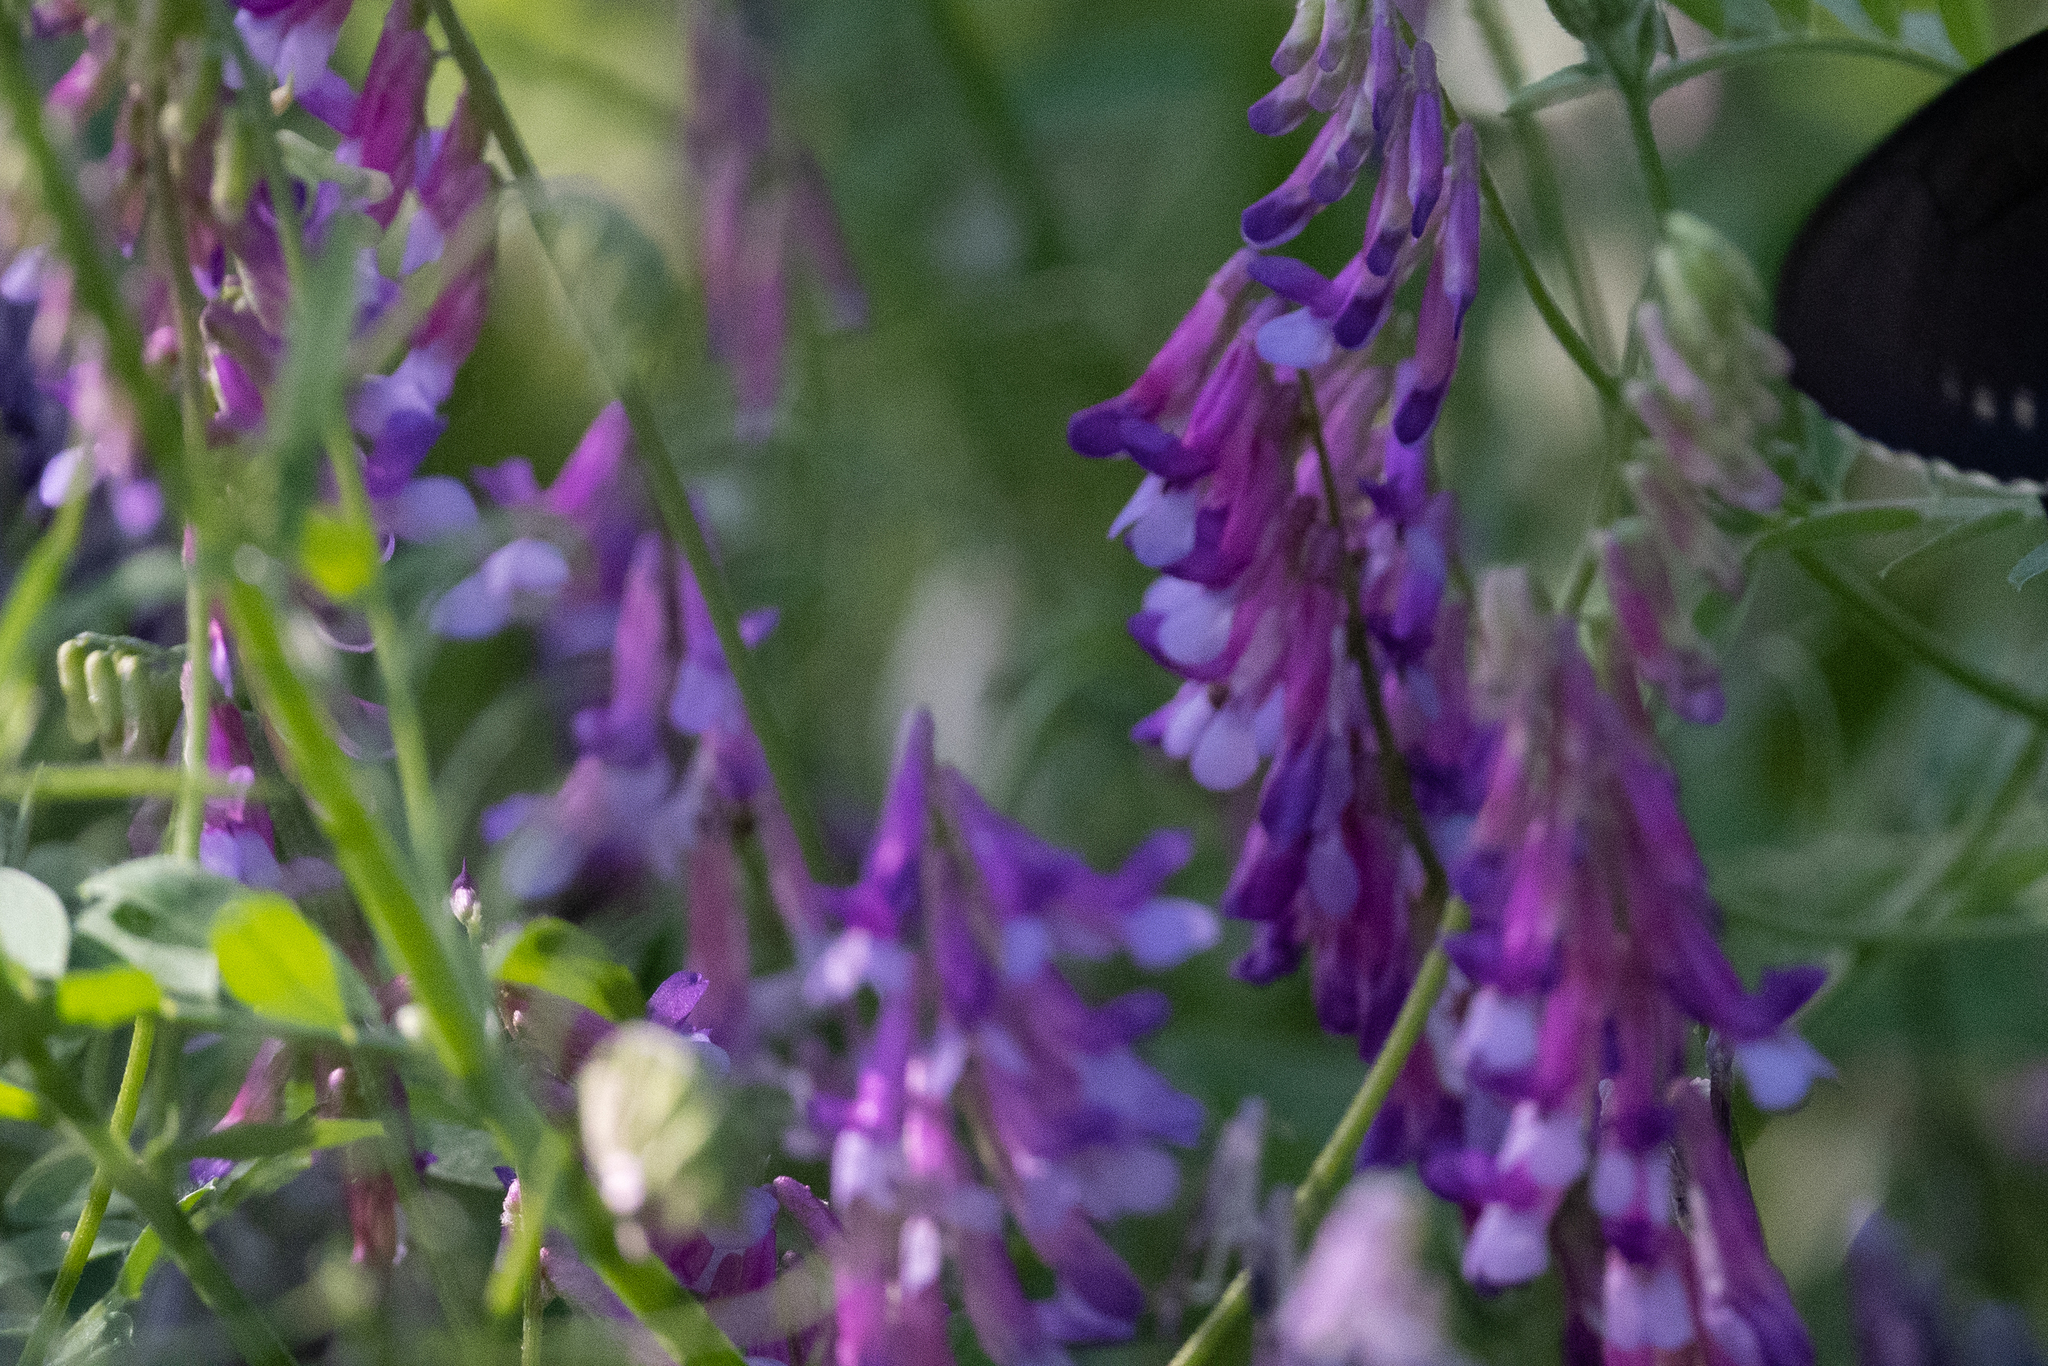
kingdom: Plantae
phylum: Tracheophyta
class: Magnoliopsida
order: Fabales
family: Fabaceae
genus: Vicia
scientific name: Vicia villosa
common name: Fodder vetch
